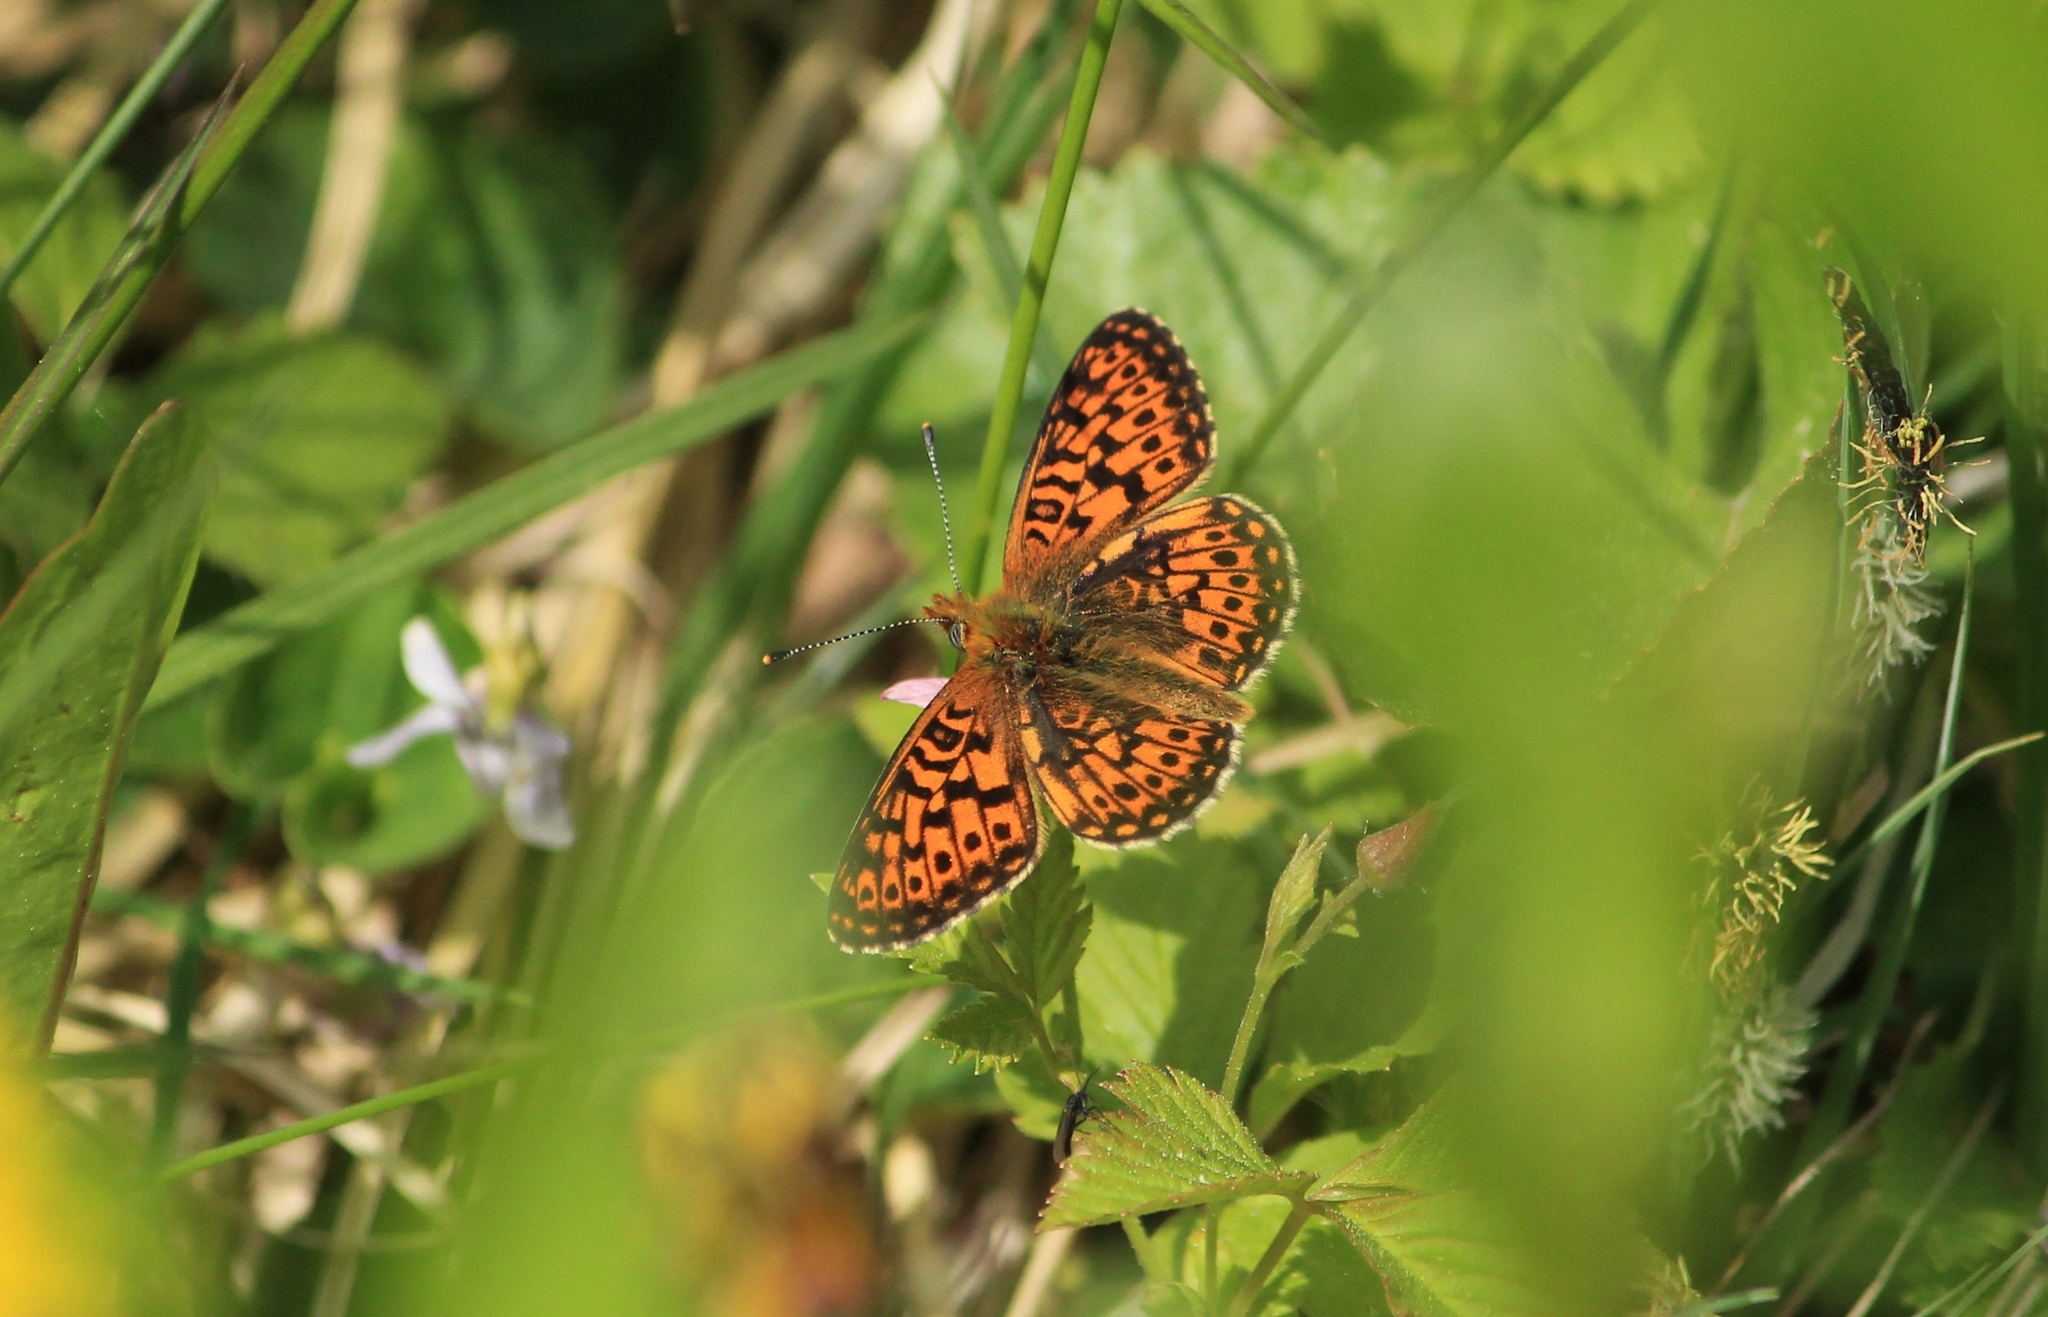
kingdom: Animalia
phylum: Arthropoda
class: Insecta
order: Lepidoptera
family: Nymphalidae
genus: Clossiana
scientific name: Clossiana euphrosyne
